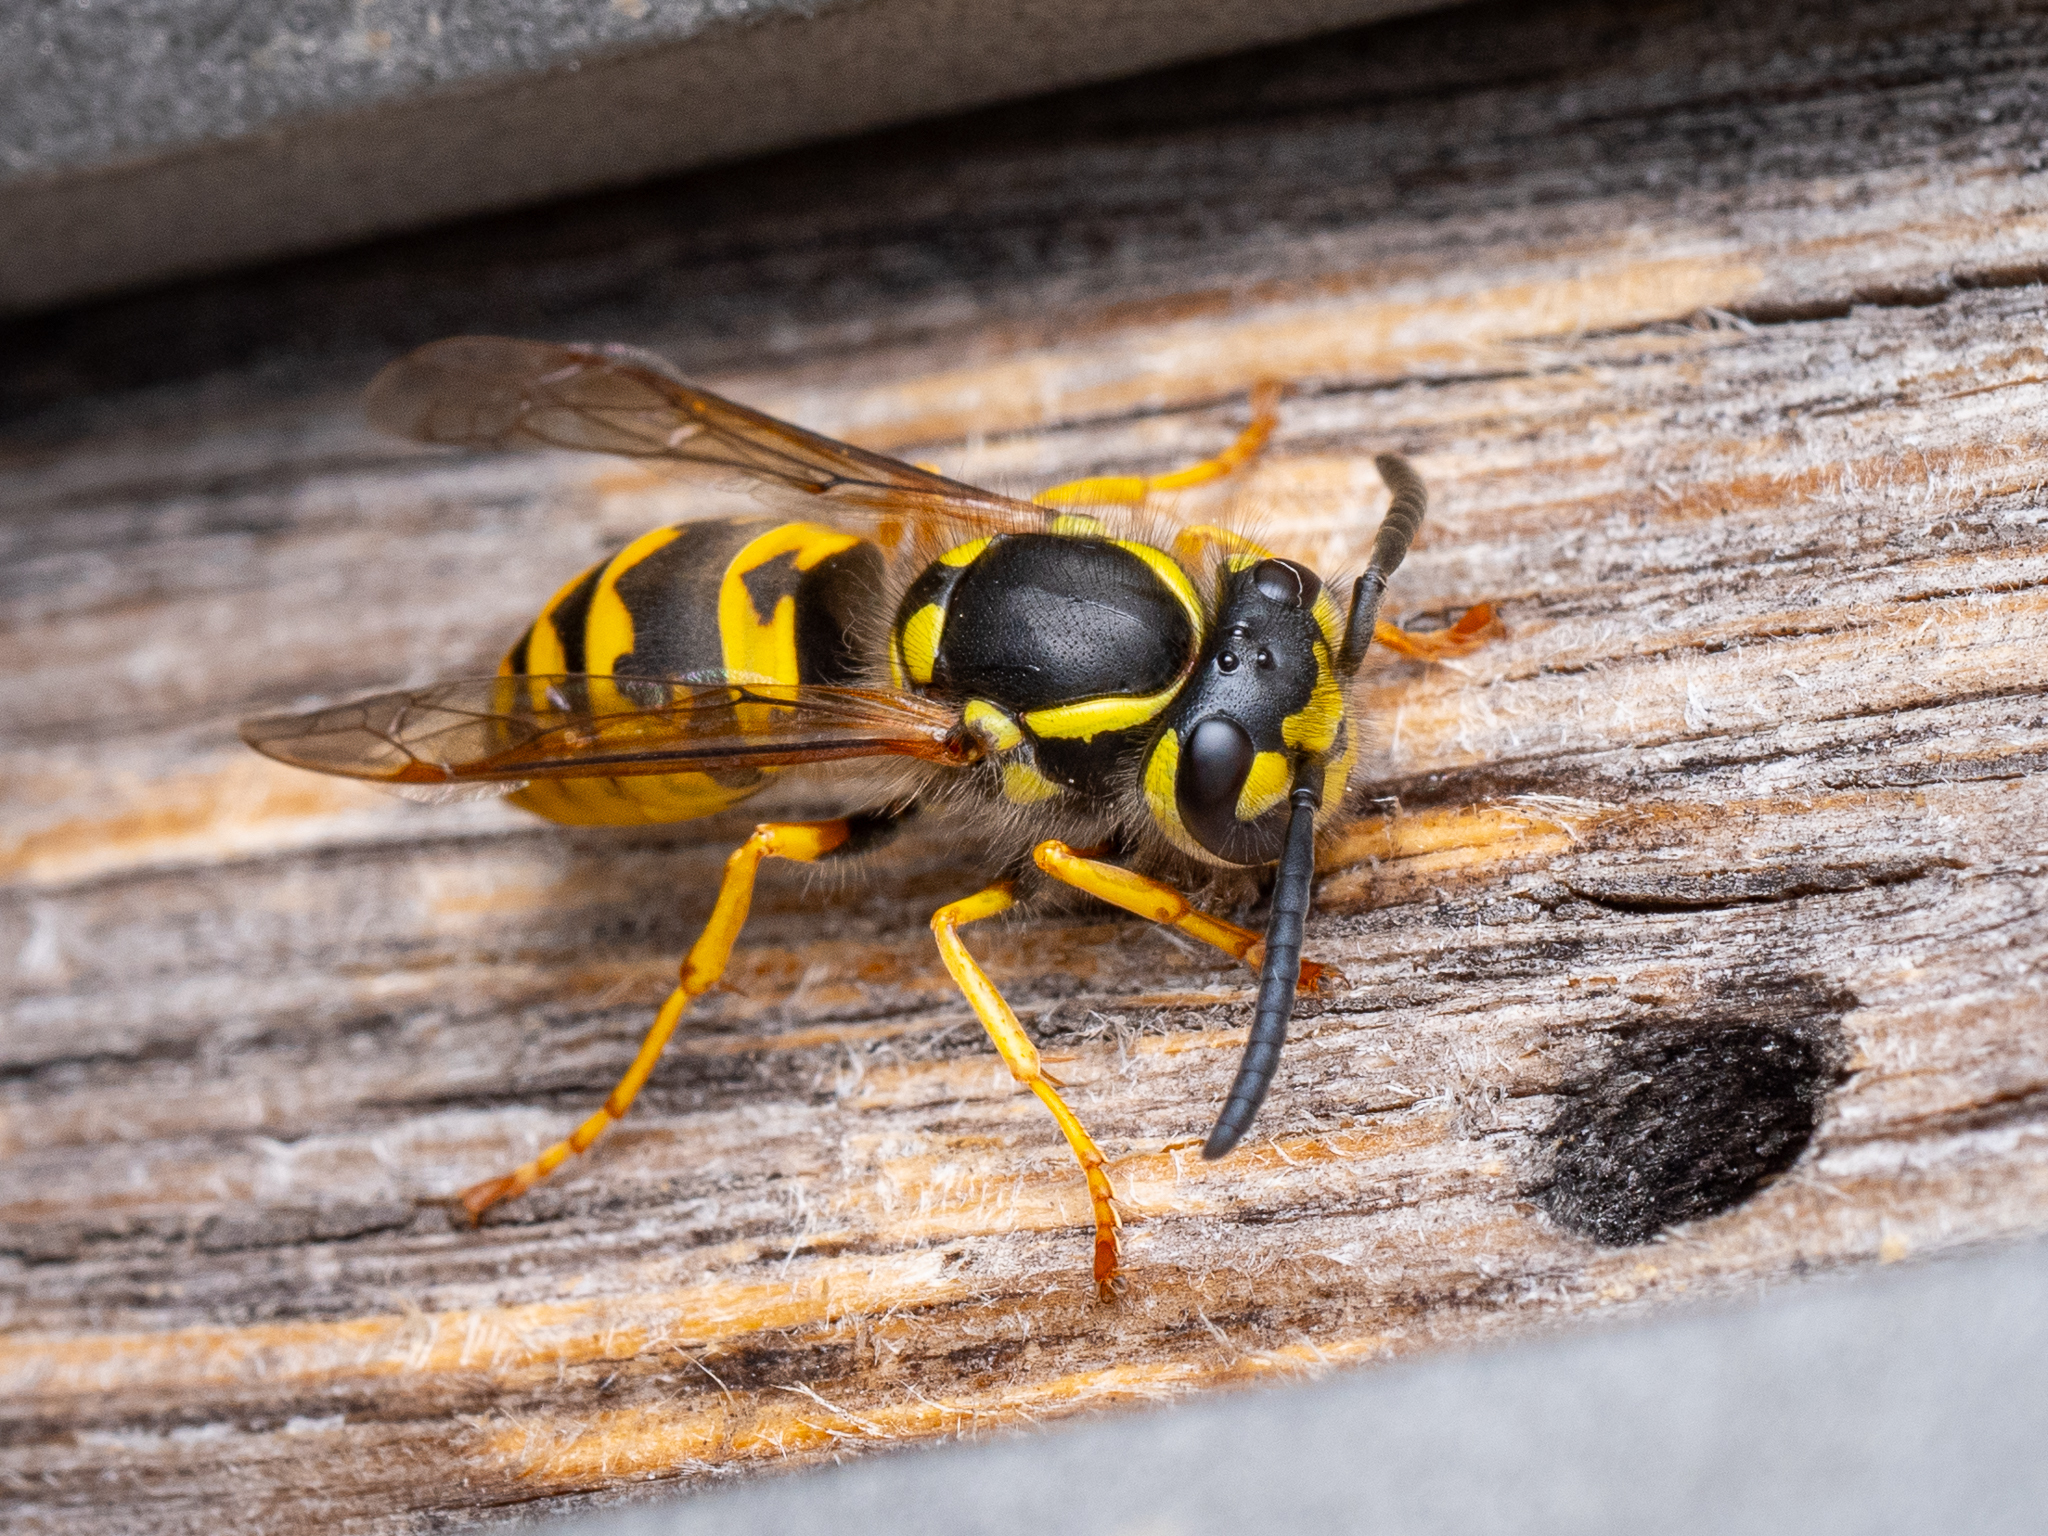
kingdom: Animalia
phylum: Arthropoda
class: Insecta
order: Hymenoptera
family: Vespidae
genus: Vespula
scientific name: Vespula germanica
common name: German wasp
